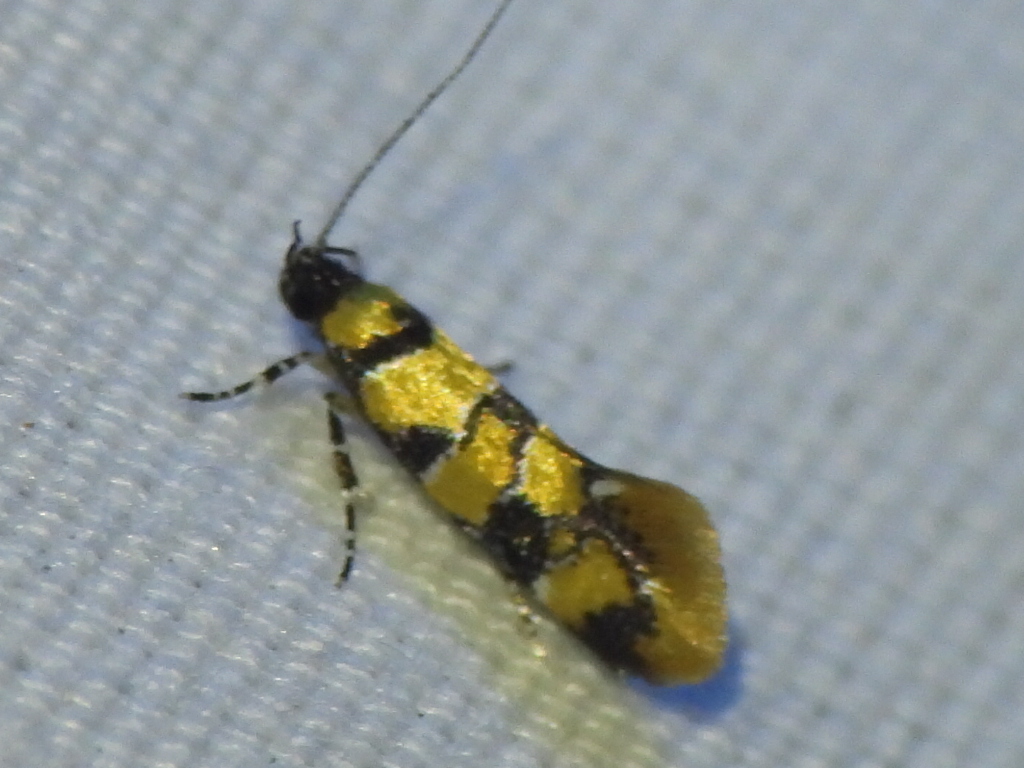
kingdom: Animalia
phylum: Arthropoda
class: Insecta
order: Lepidoptera
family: Oecophoridae
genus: Decantha
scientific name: Decantha borkhausenii
